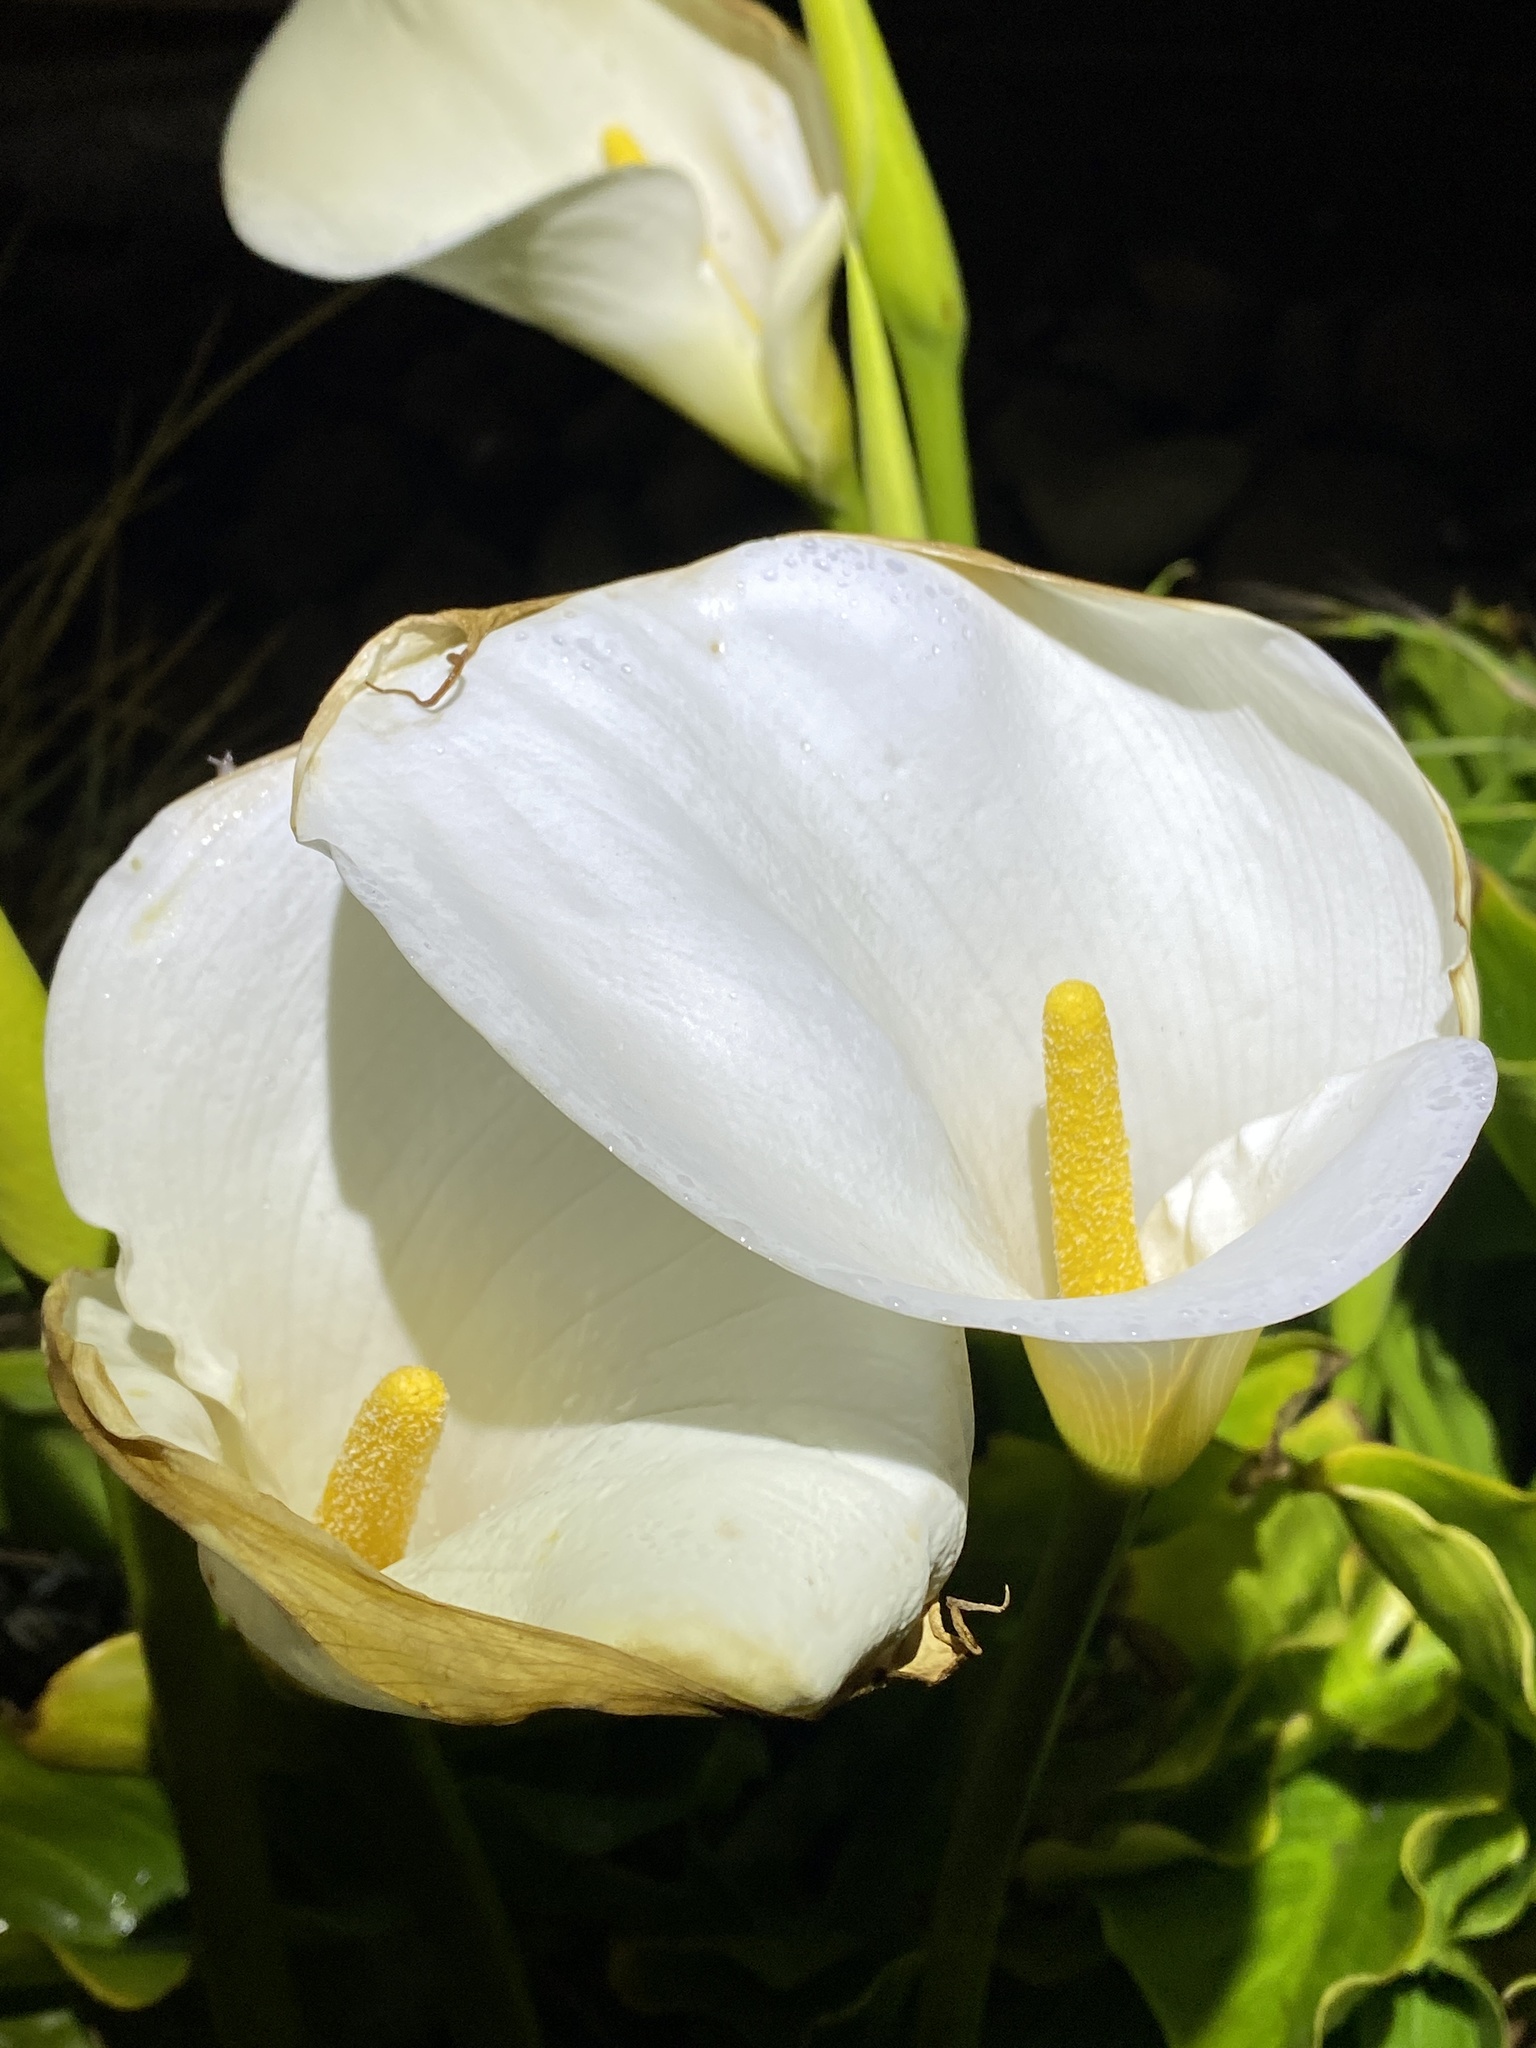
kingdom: Plantae
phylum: Tracheophyta
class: Liliopsida
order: Alismatales
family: Araceae
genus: Zantedeschia
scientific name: Zantedeschia aethiopica
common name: Altar-lily
